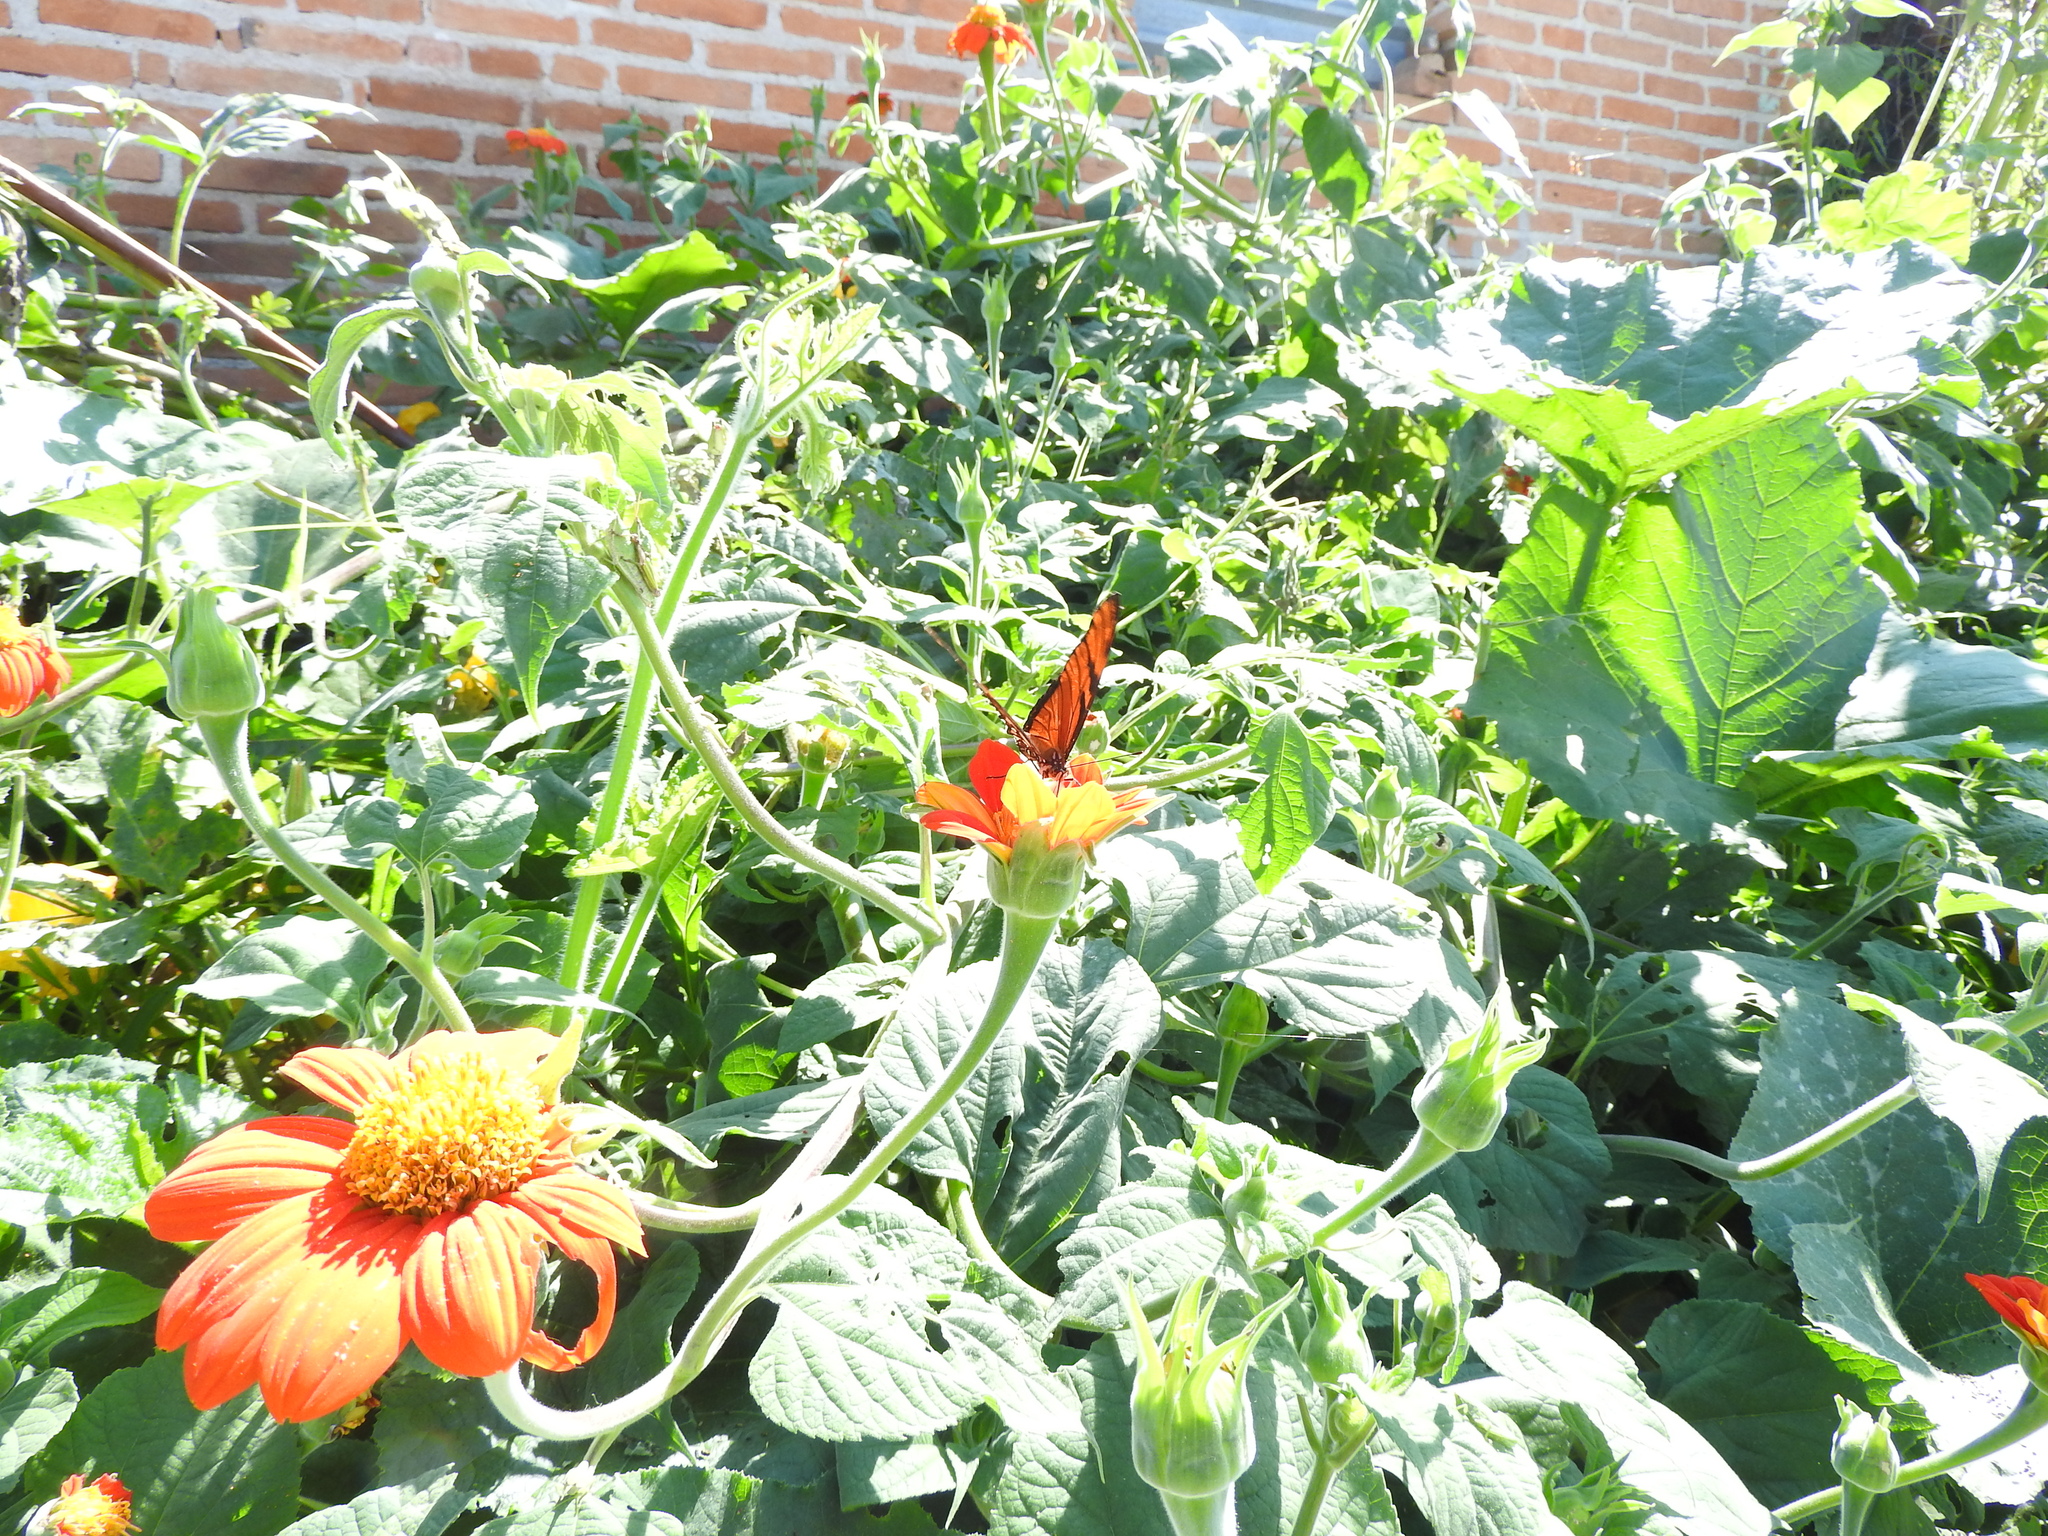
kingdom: Plantae
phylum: Tracheophyta
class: Magnoliopsida
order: Asterales
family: Asteraceae
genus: Tithonia
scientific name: Tithonia rotundifolia
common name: Sunflower
